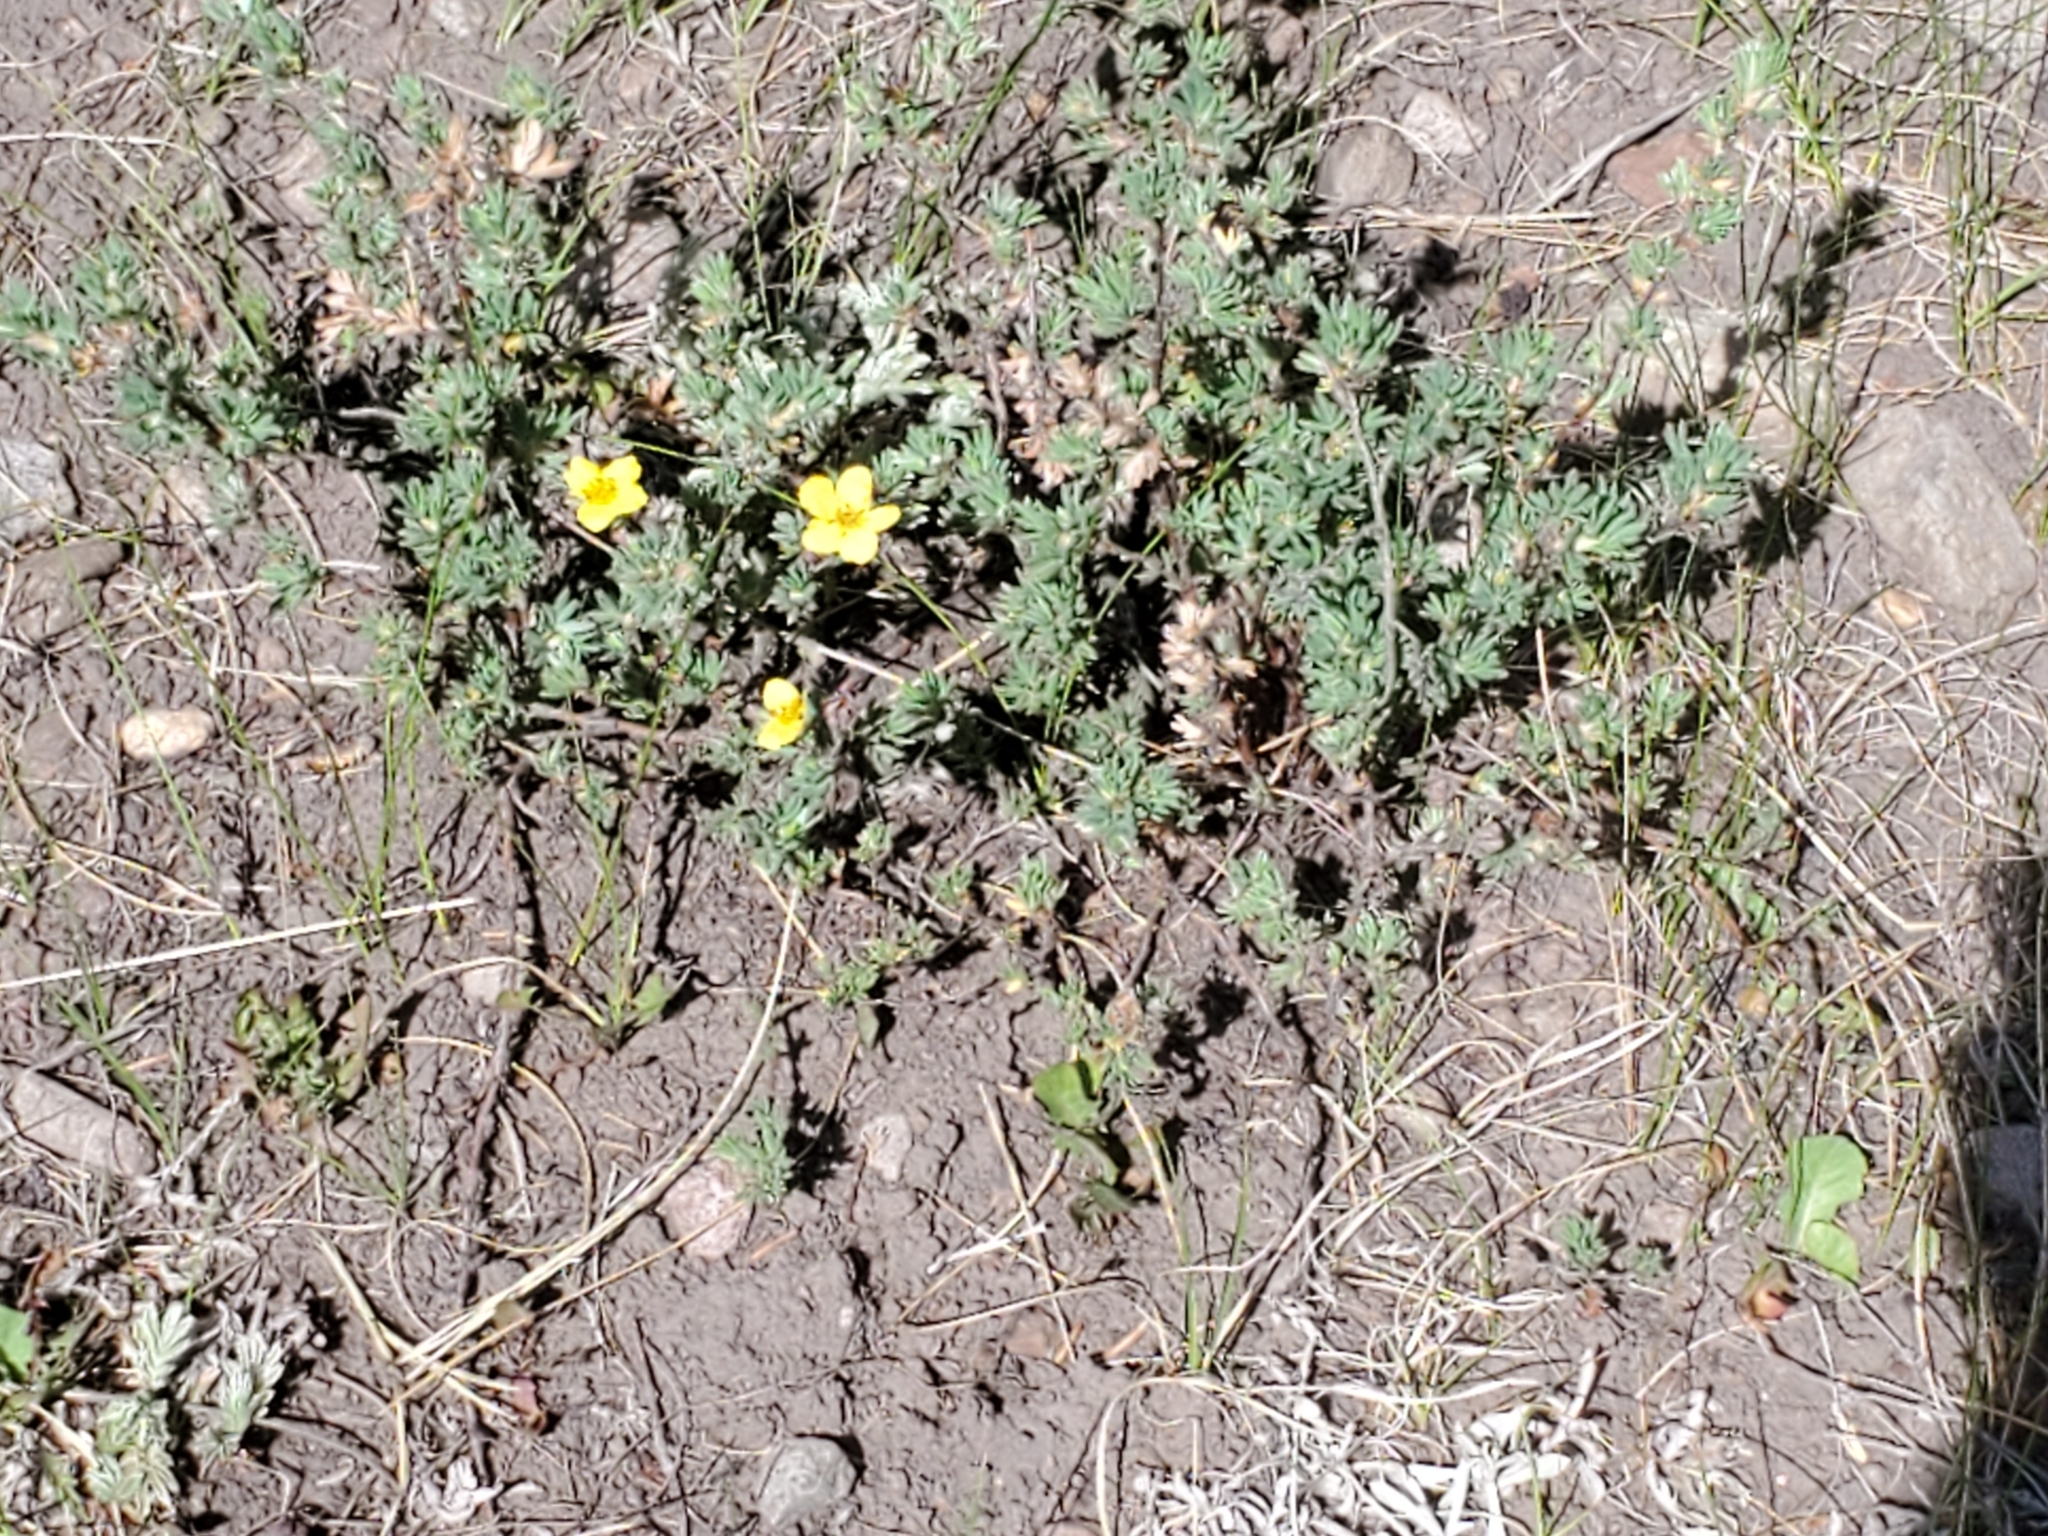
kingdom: Plantae
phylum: Tracheophyta
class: Magnoliopsida
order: Rosales
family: Rosaceae
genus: Dasiphora
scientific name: Dasiphora fruticosa
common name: Shrubby cinquefoil
